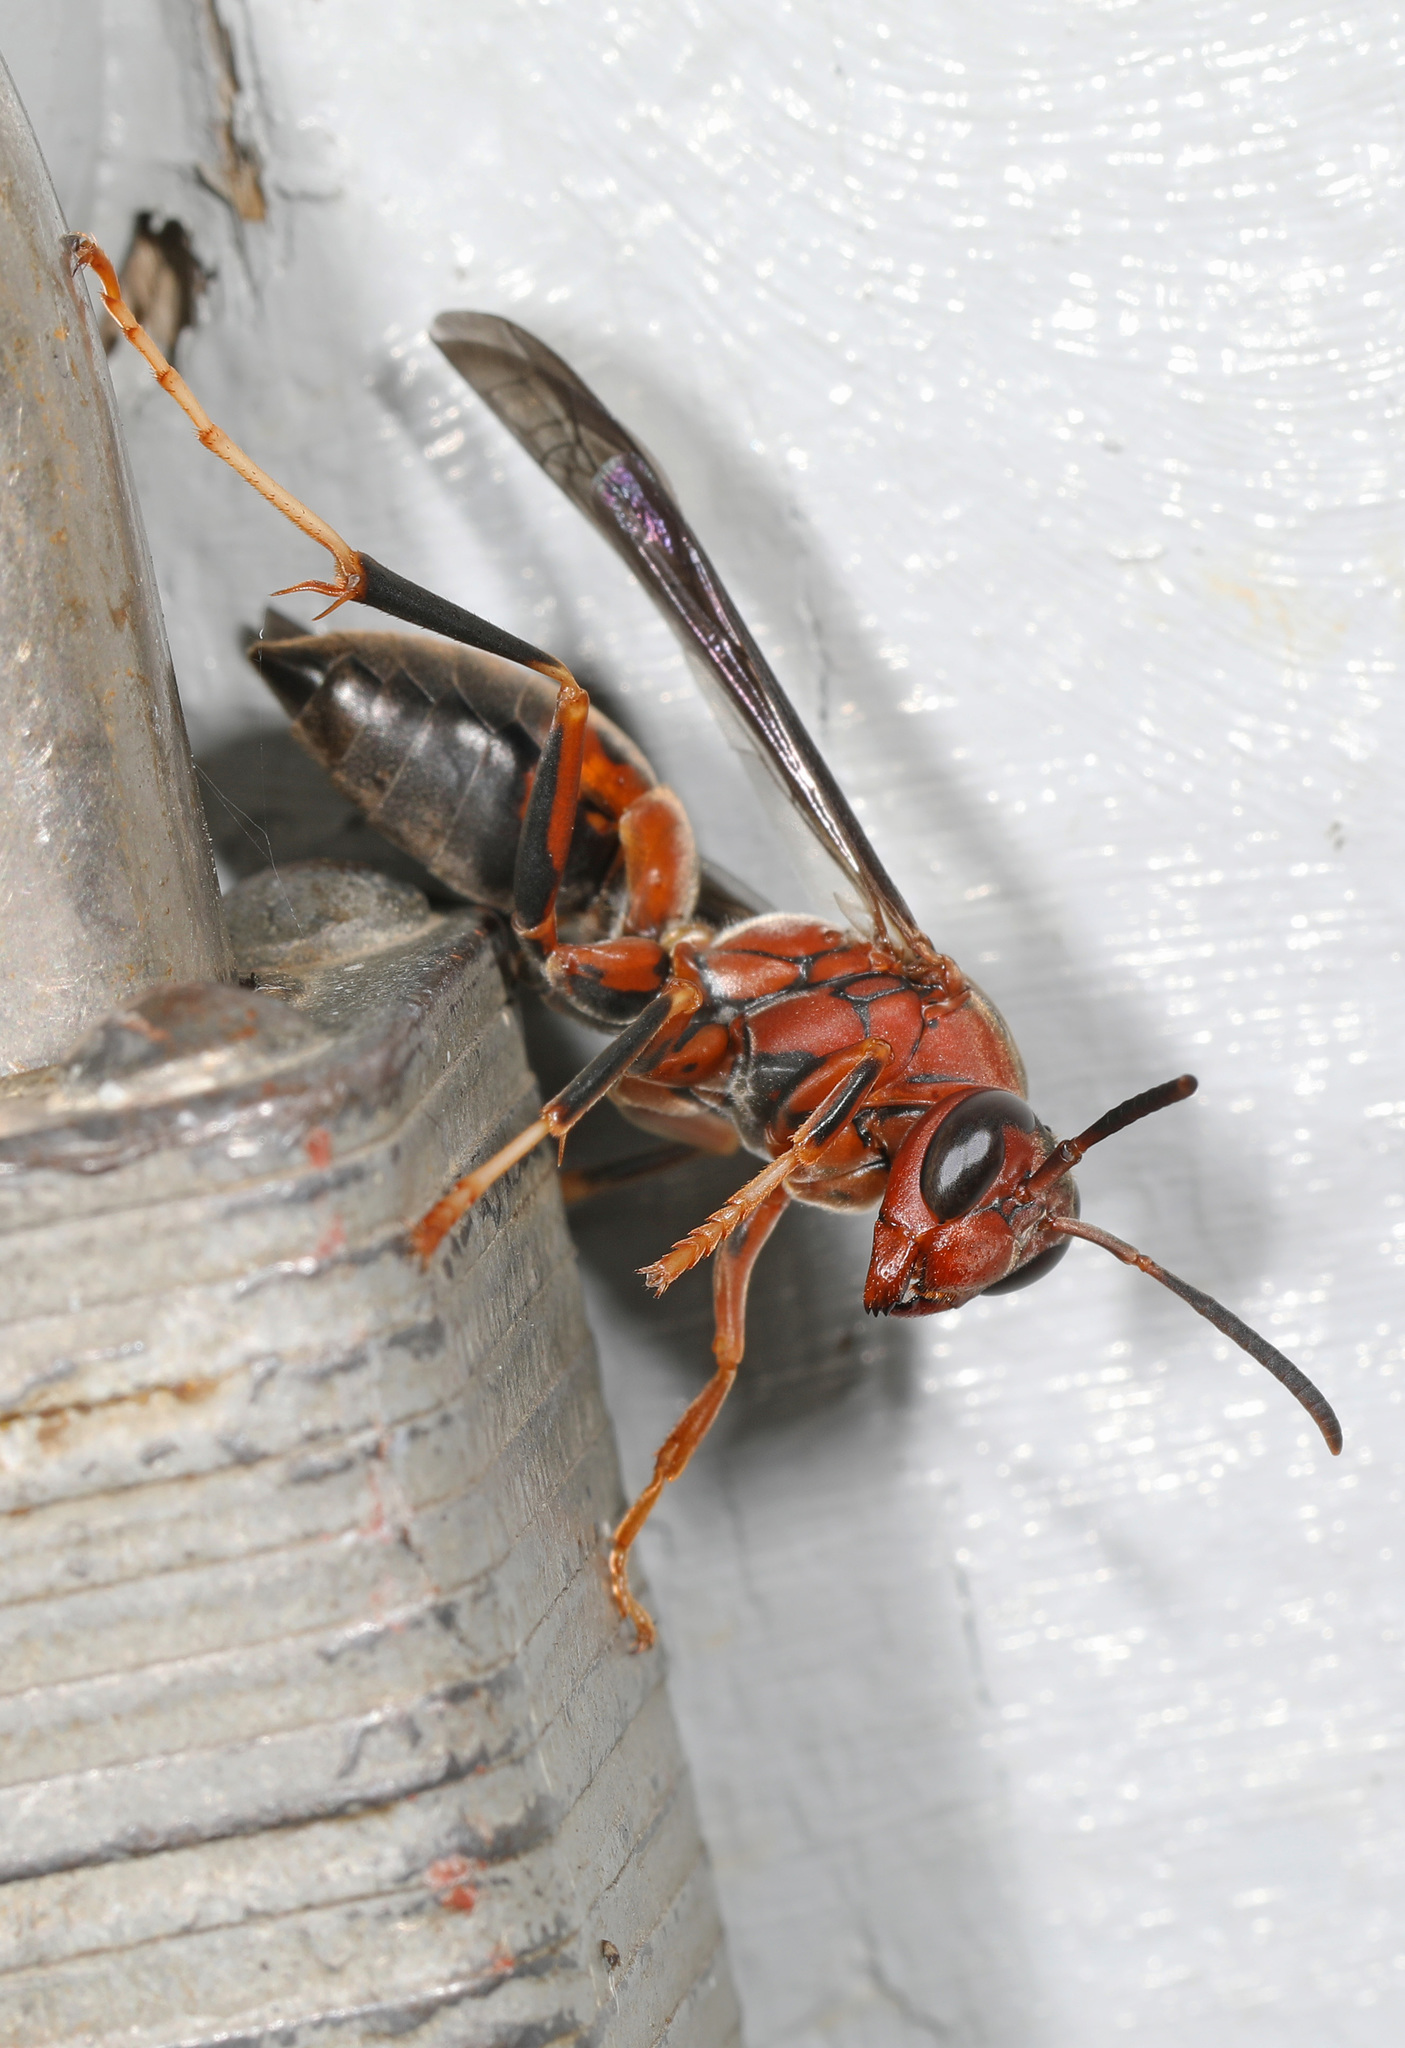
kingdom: Animalia
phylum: Arthropoda
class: Insecta
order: Hymenoptera
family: Eumenidae
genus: Polistes
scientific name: Polistes metricus
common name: Metric paper wasp
